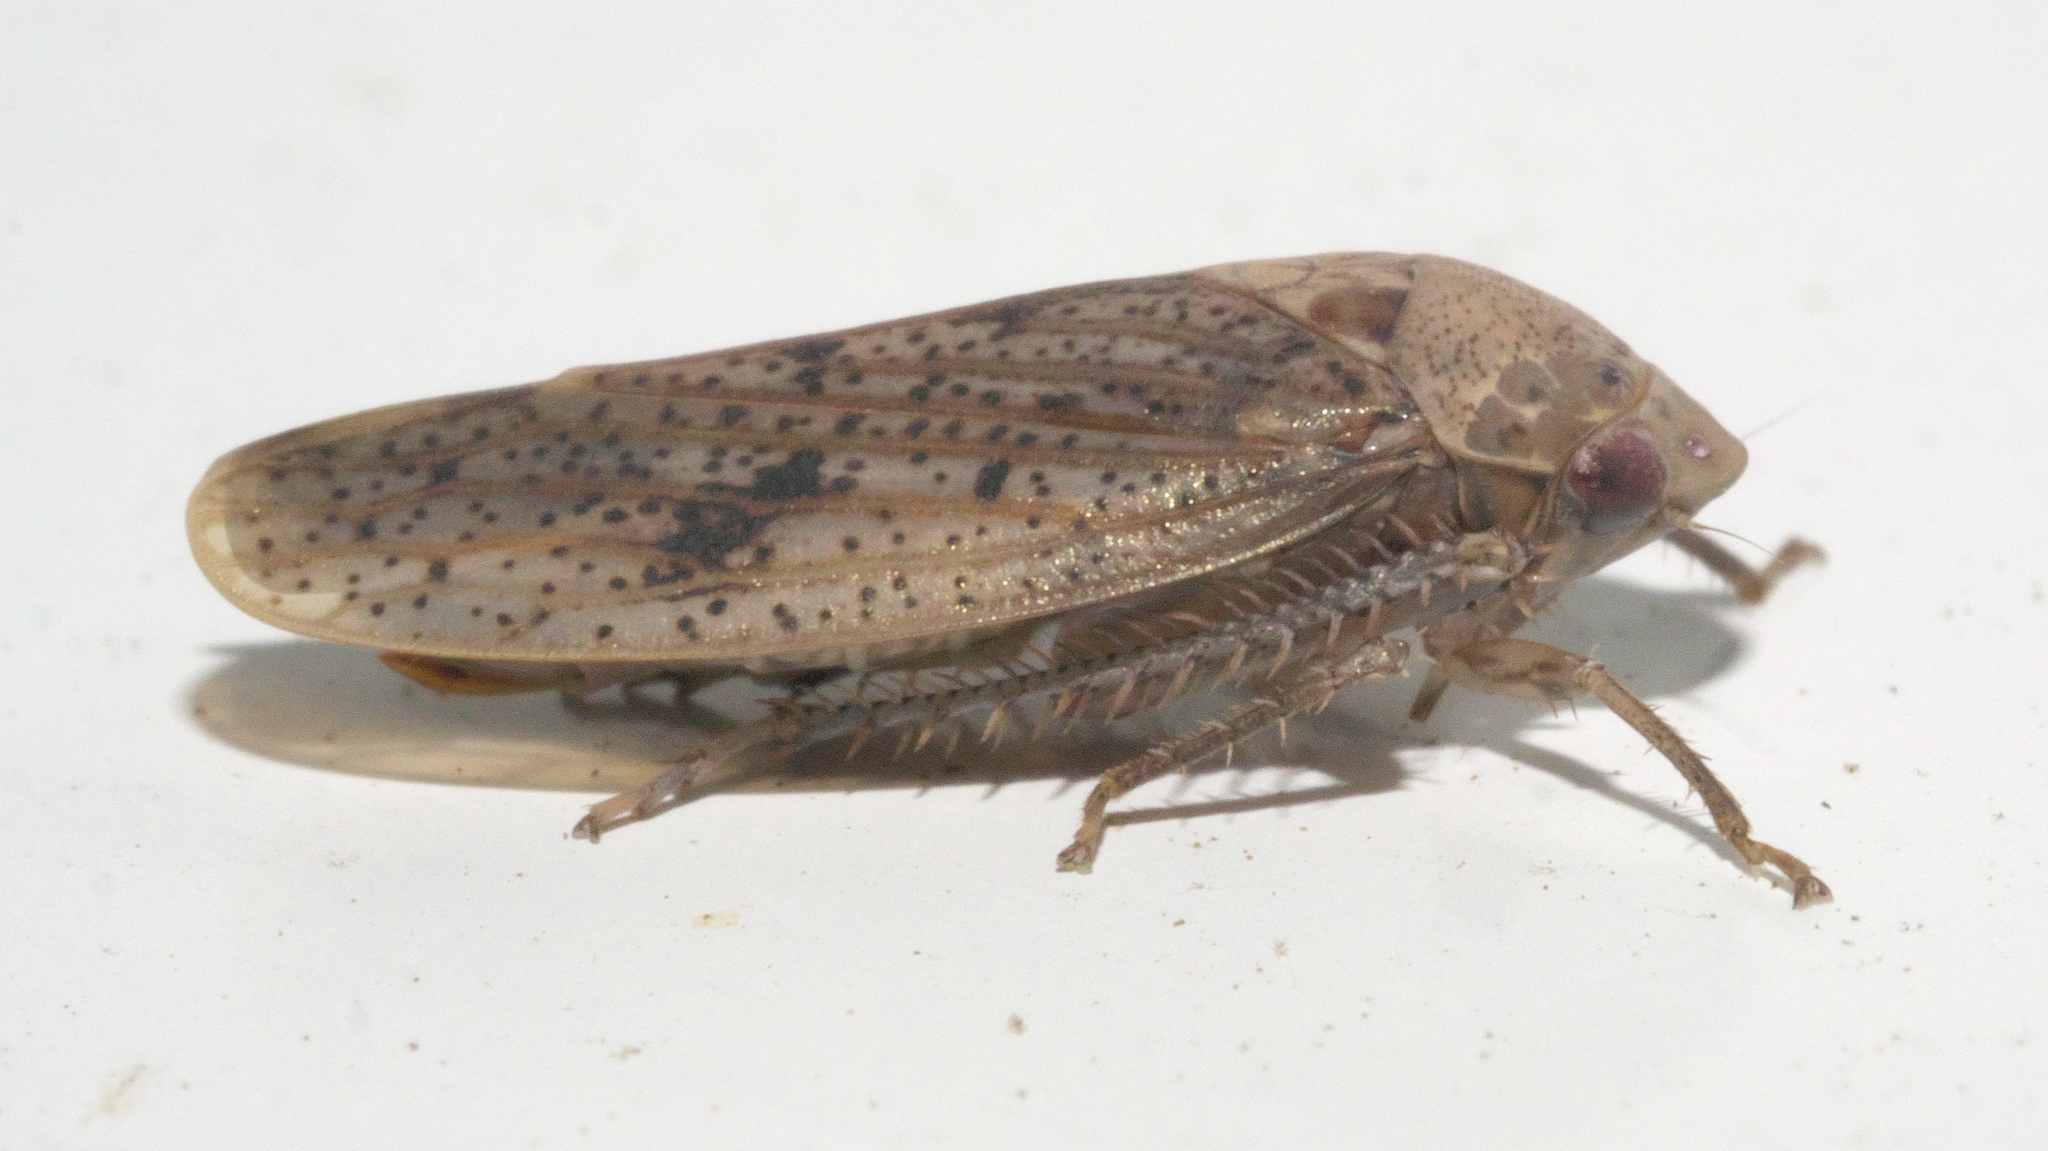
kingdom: Animalia
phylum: Arthropoda
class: Insecta
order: Hemiptera
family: Cicadellidae
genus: Ponana
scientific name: Ponana puncticollis
